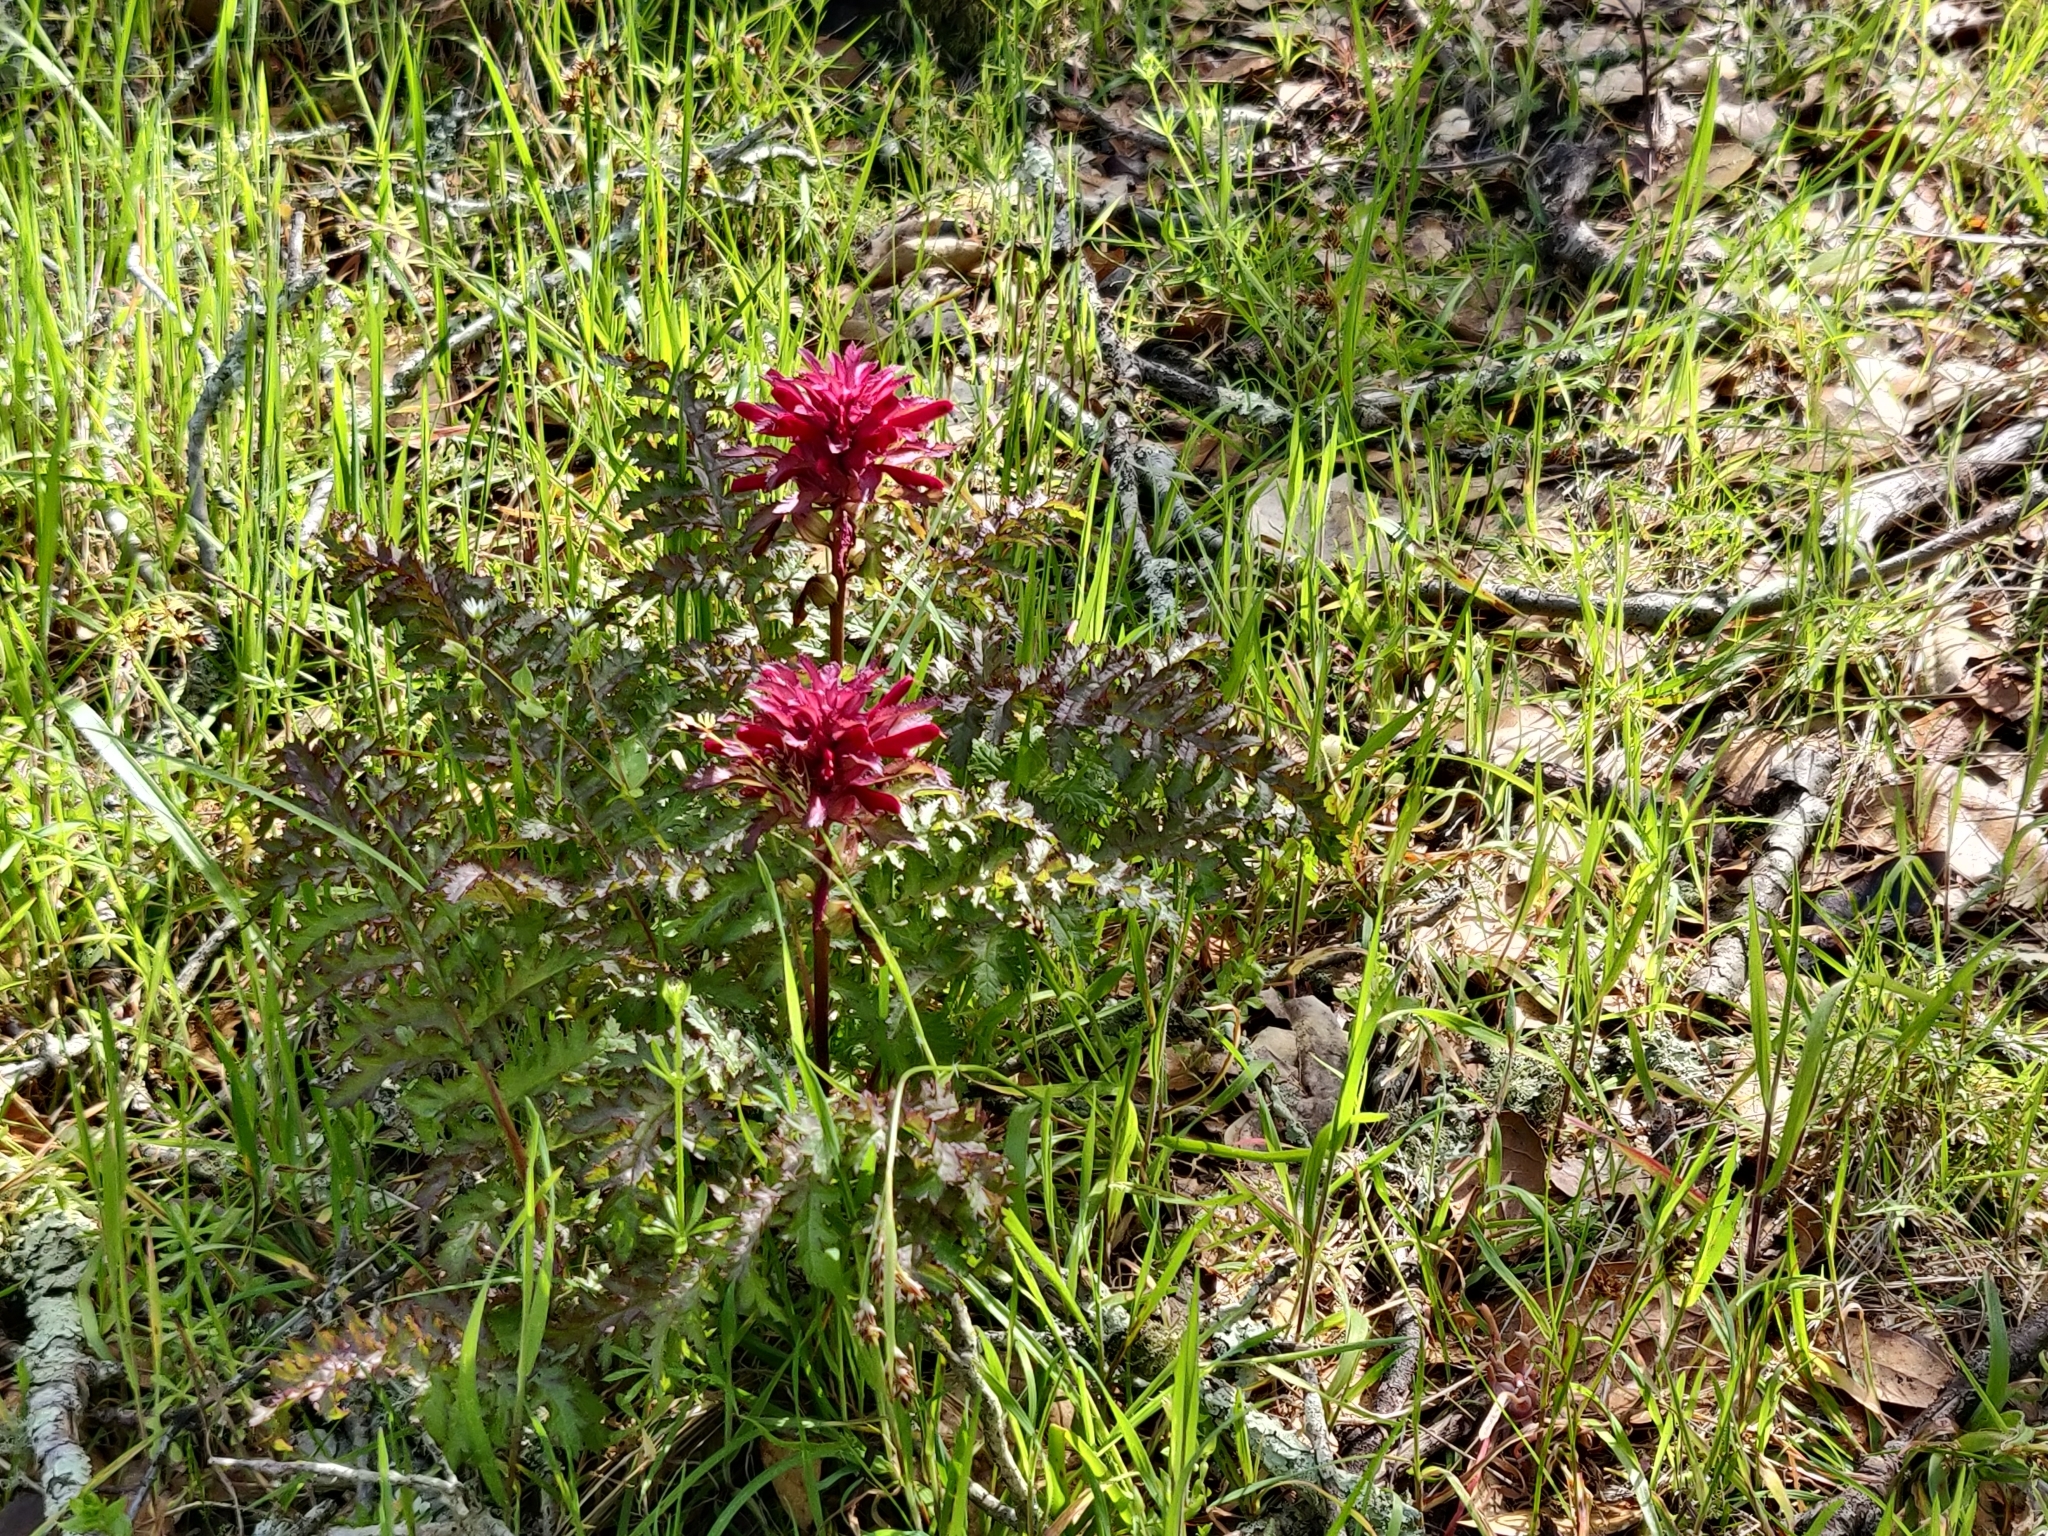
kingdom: Plantae
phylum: Tracheophyta
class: Magnoliopsida
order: Lamiales
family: Orobanchaceae
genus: Pedicularis
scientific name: Pedicularis densiflora
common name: Indian warrior
